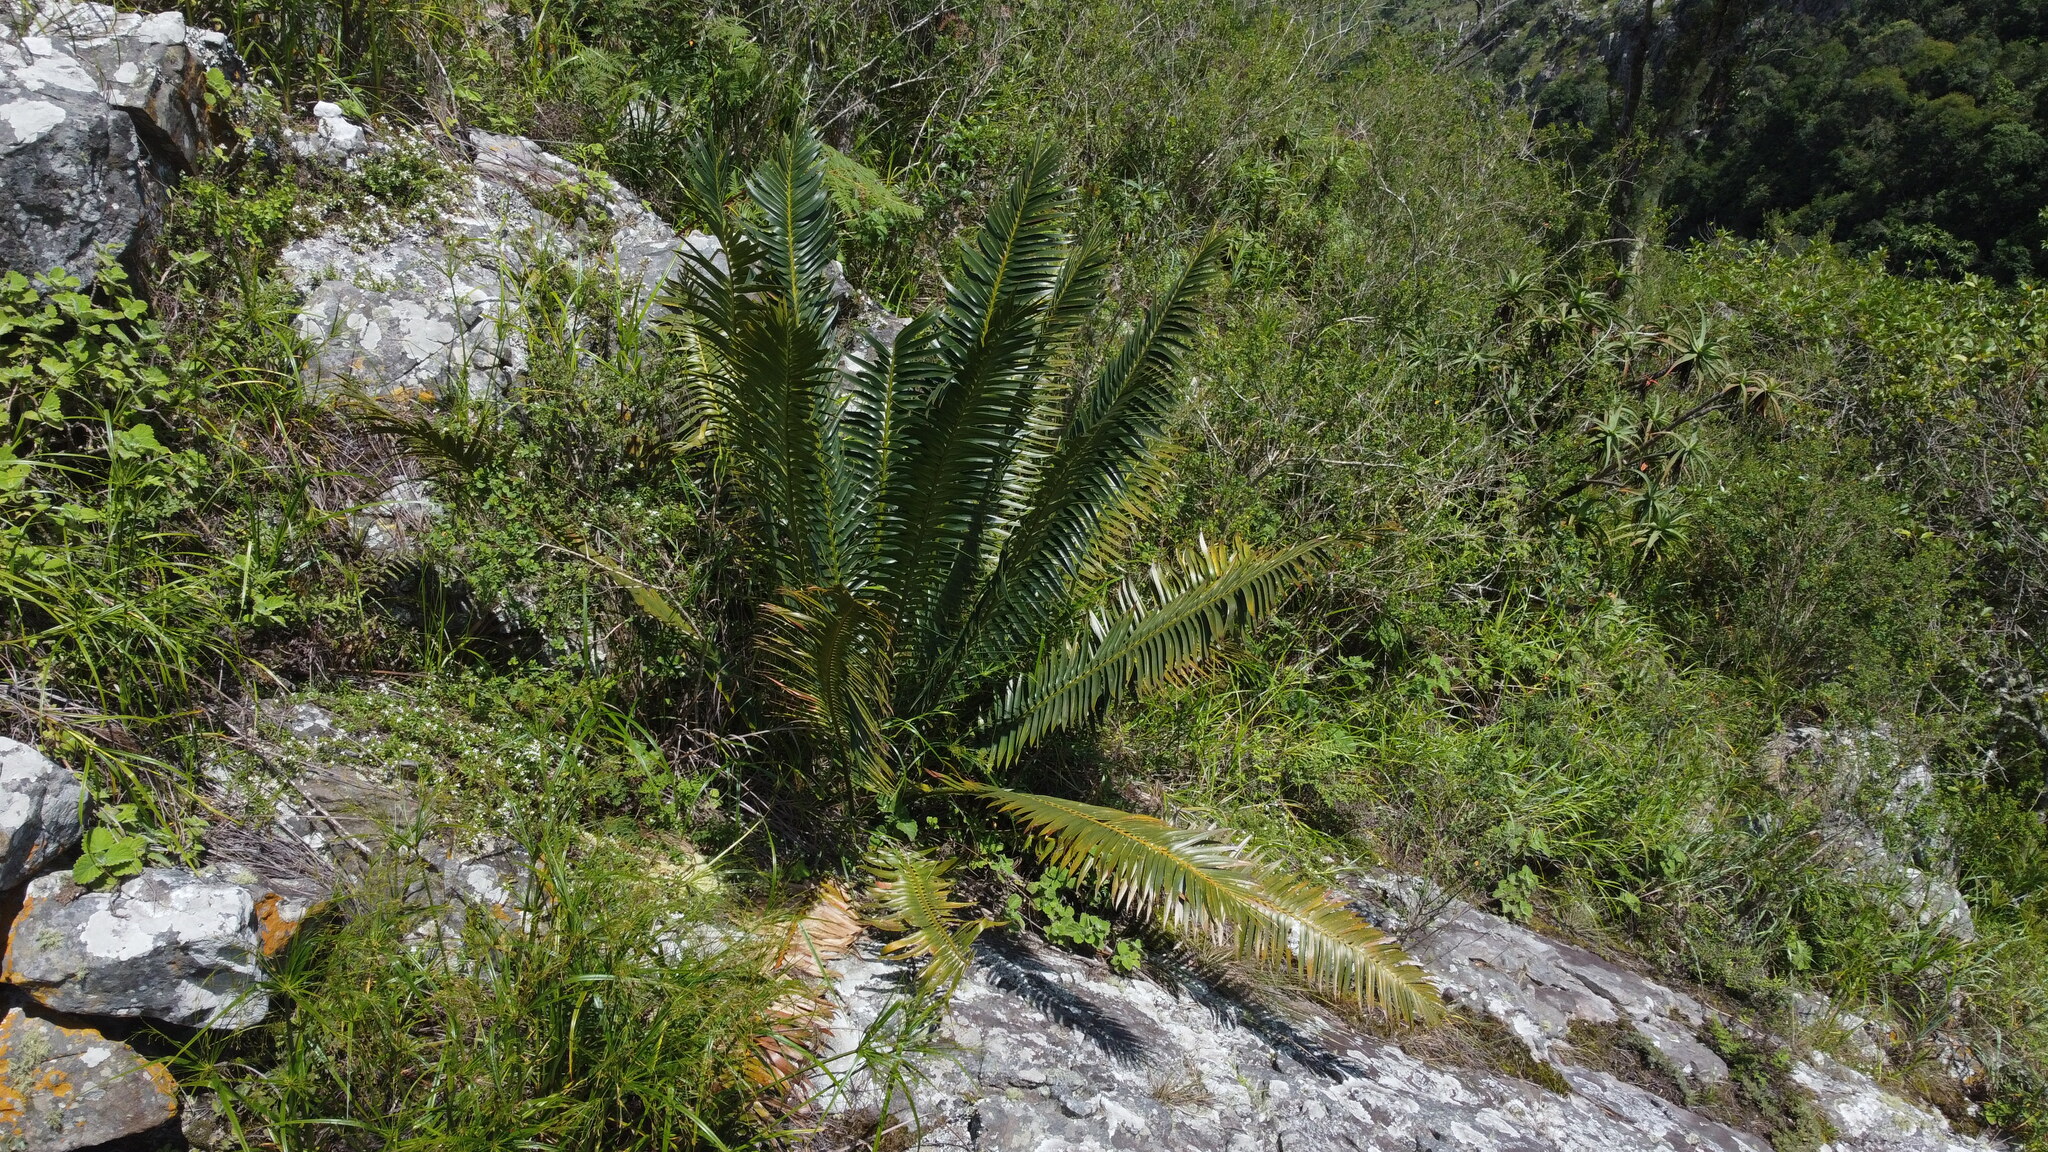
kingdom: Plantae
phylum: Tracheophyta
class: Cycadopsida
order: Cycadales
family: Zamiaceae
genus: Encephalartos
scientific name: Encephalartos paucidentatus
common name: Barberton cycad
